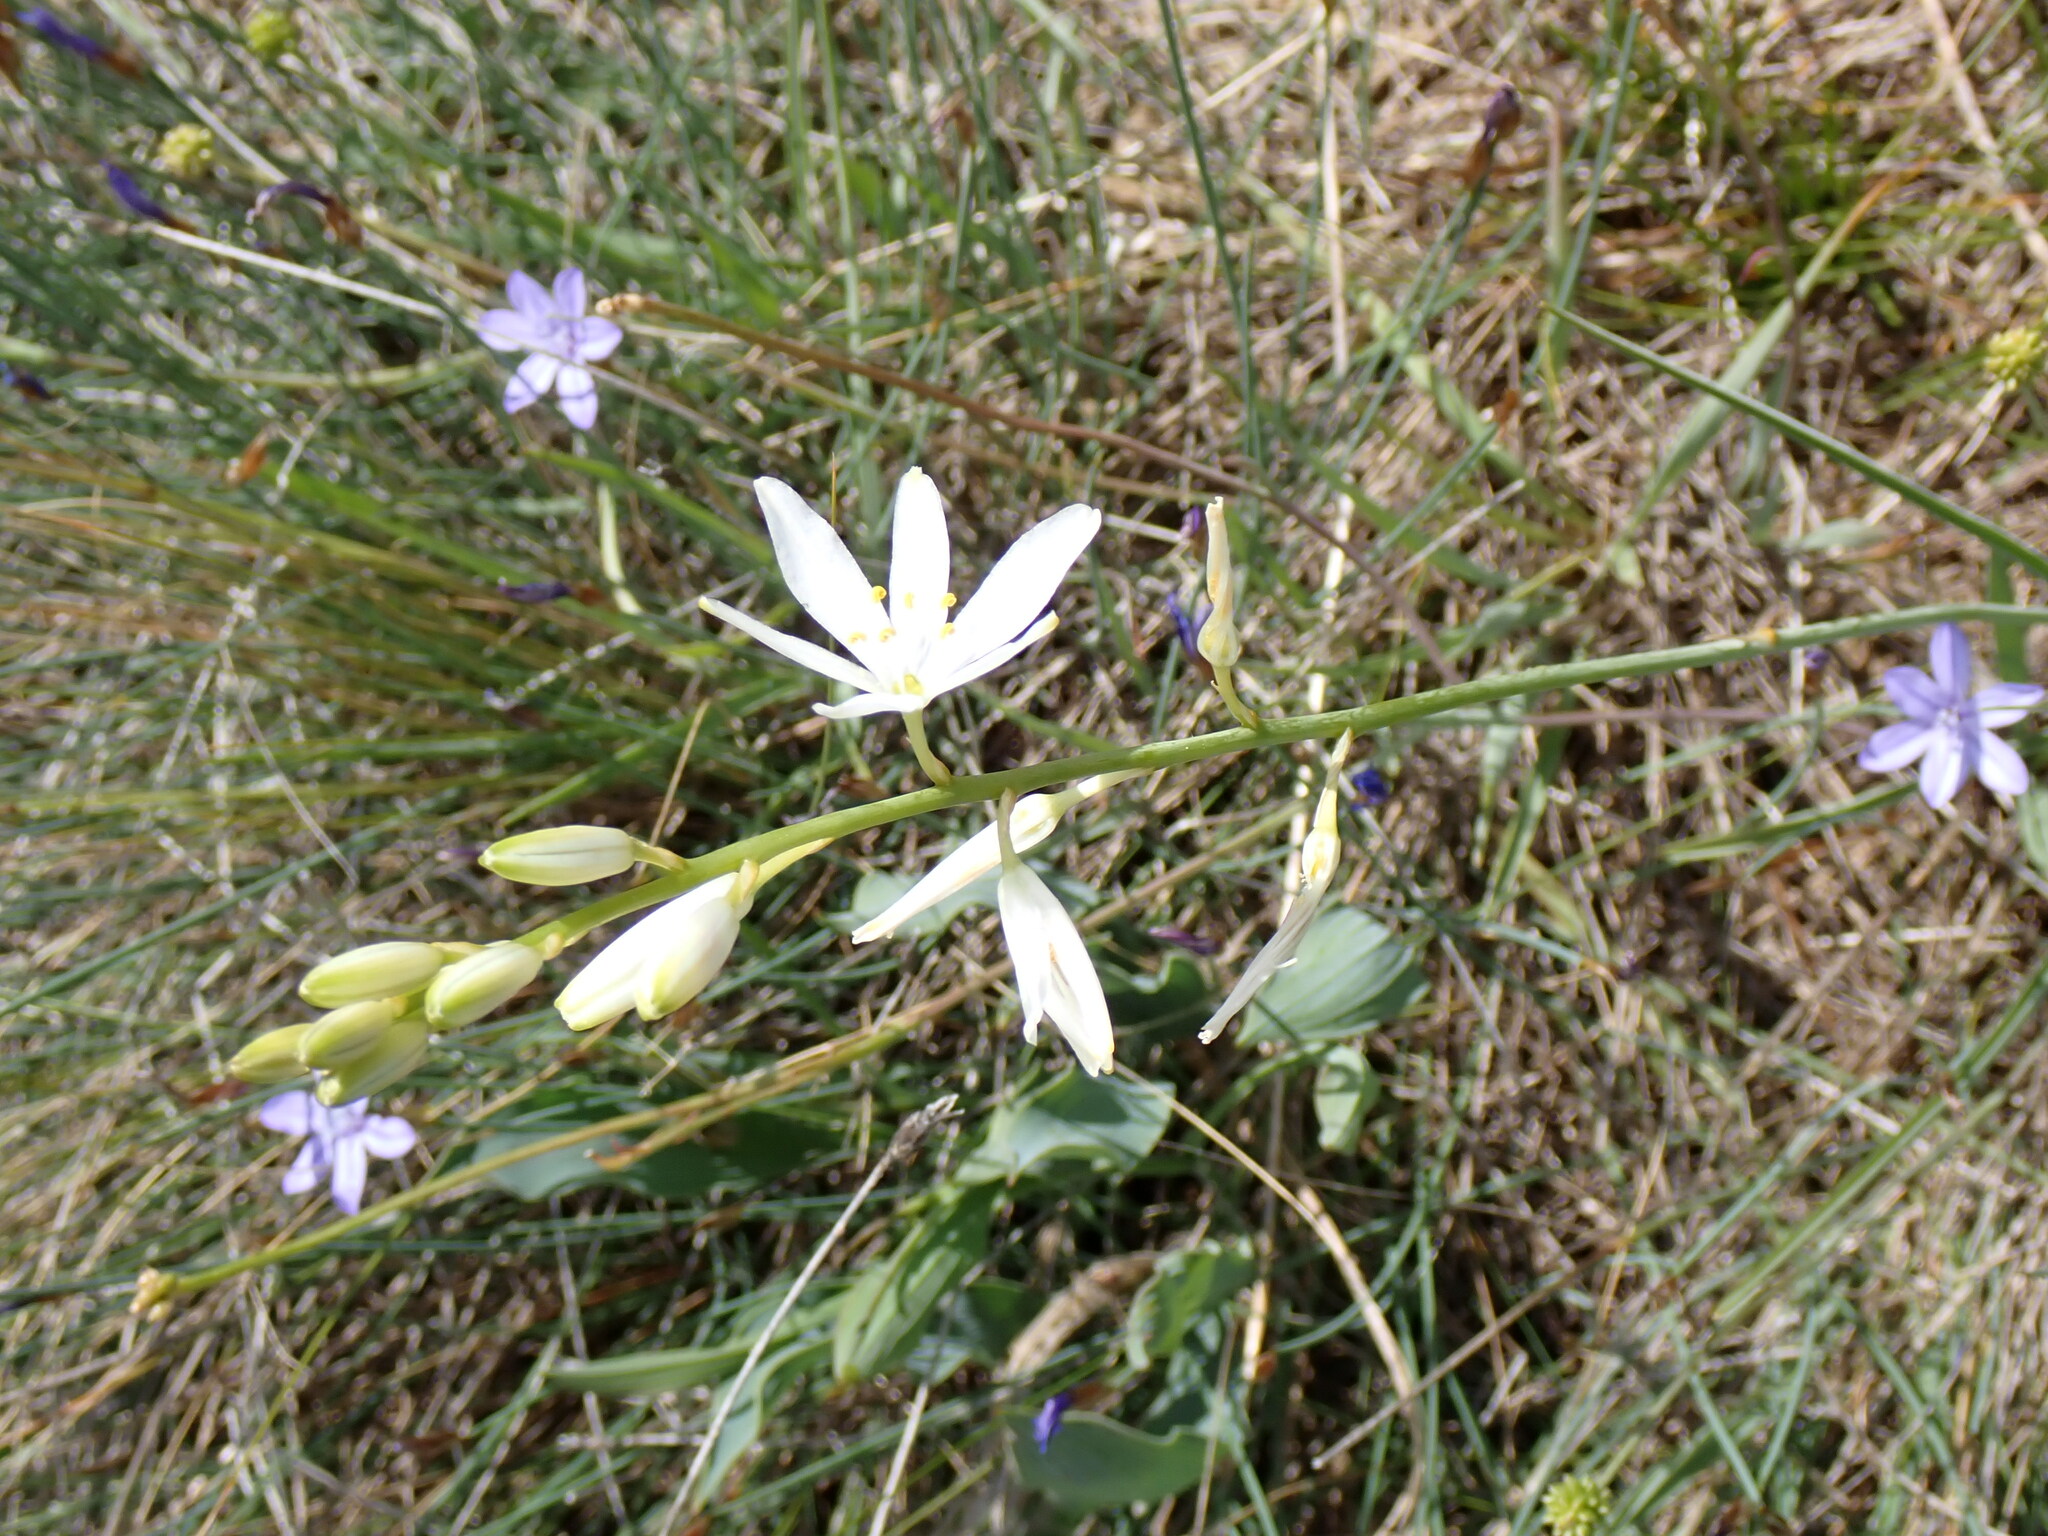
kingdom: Plantae
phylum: Tracheophyta
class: Liliopsida
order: Asparagales
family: Asparagaceae
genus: Anthericum
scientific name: Anthericum liliago
